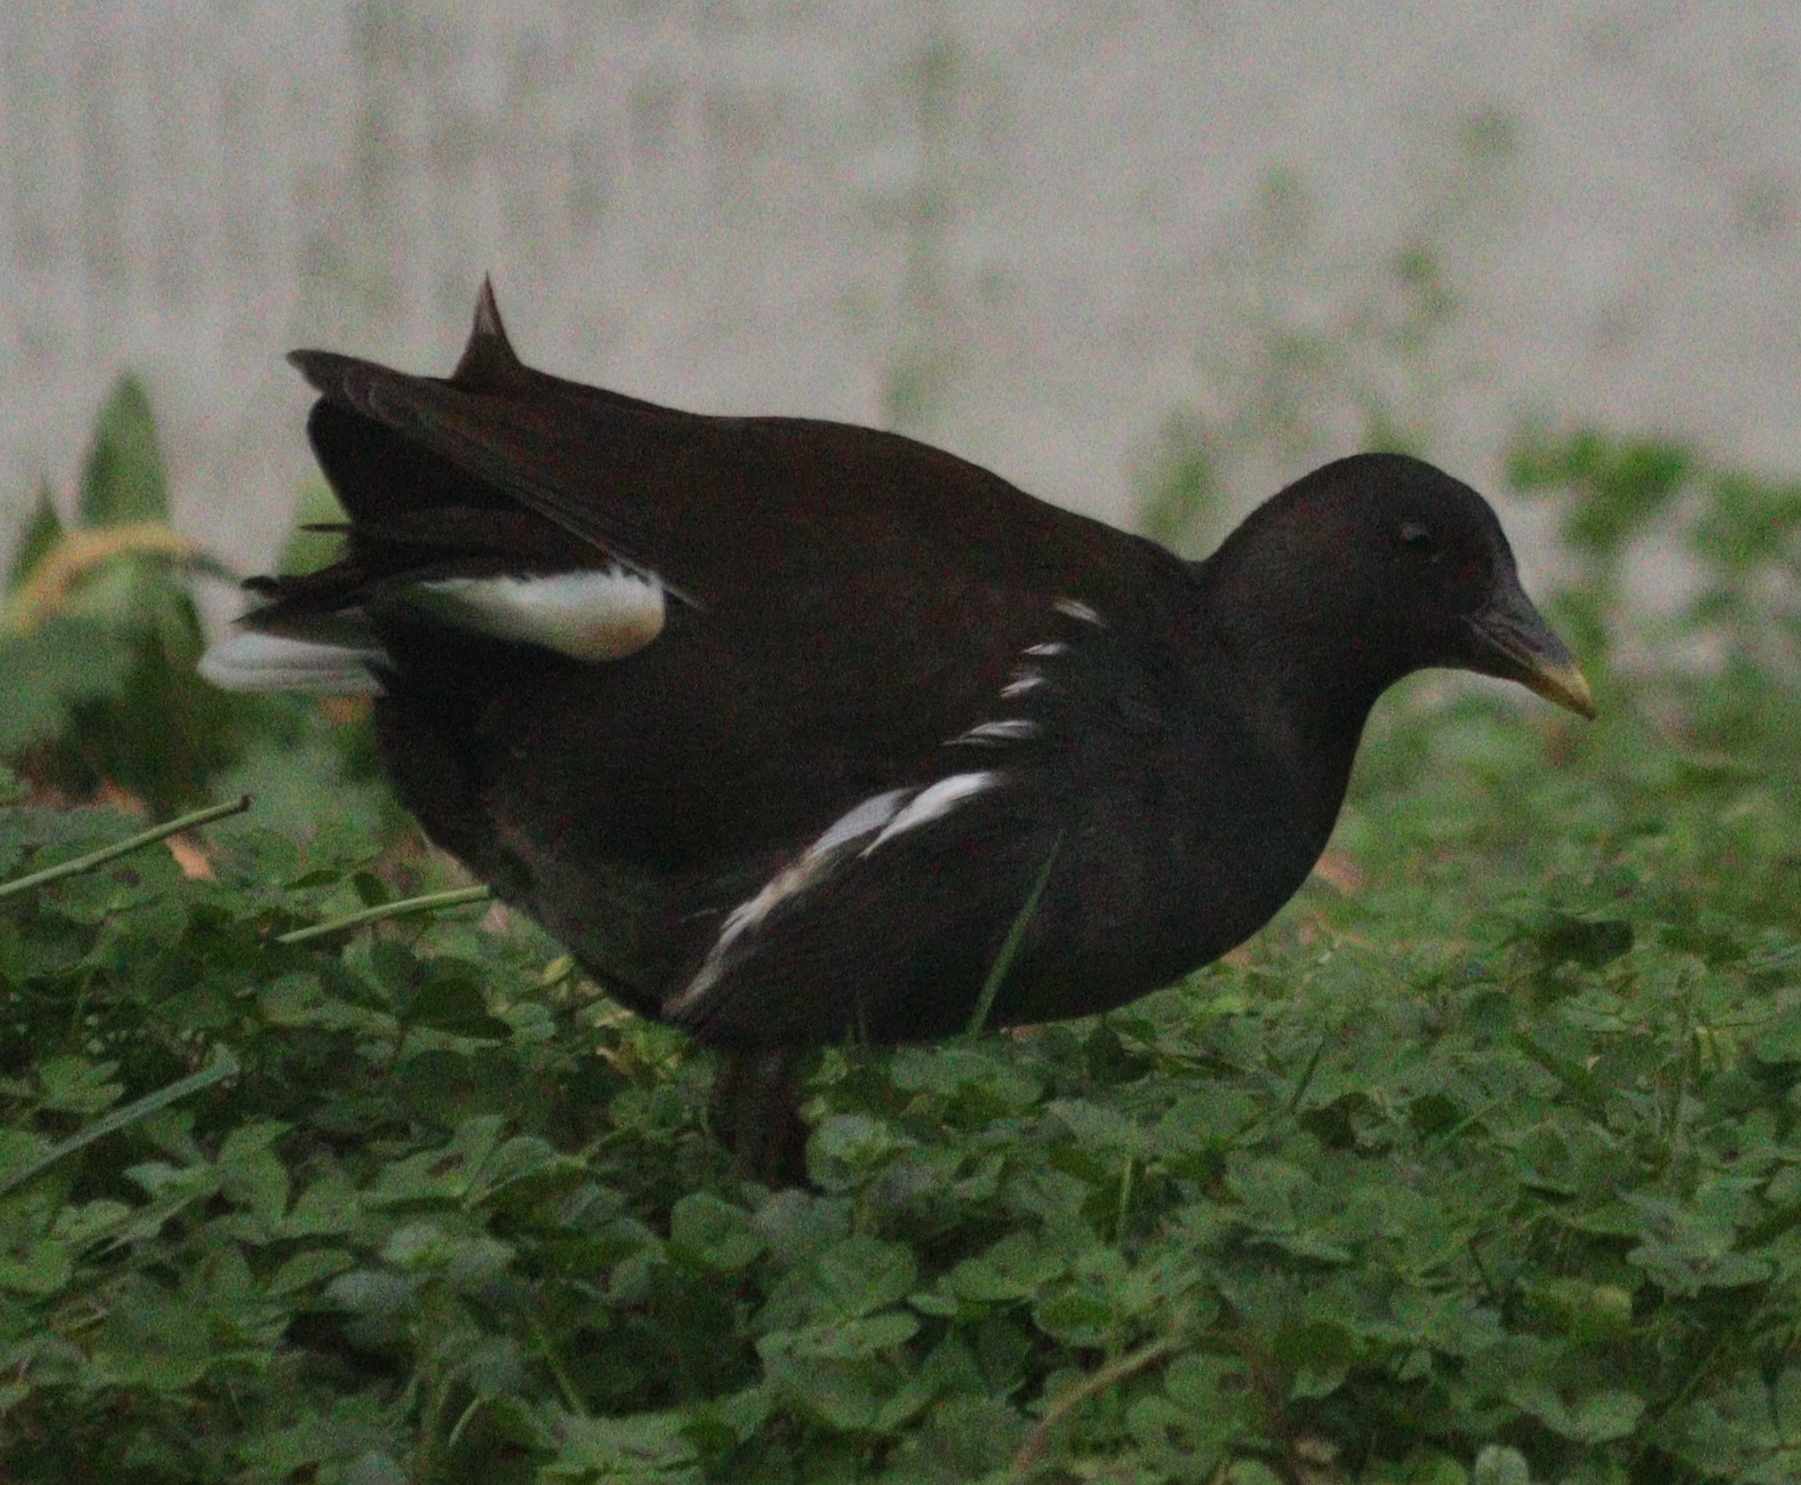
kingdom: Animalia
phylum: Chordata
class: Aves
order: Gruiformes
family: Rallidae
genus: Gallinula
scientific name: Gallinula chloropus
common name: Common moorhen
